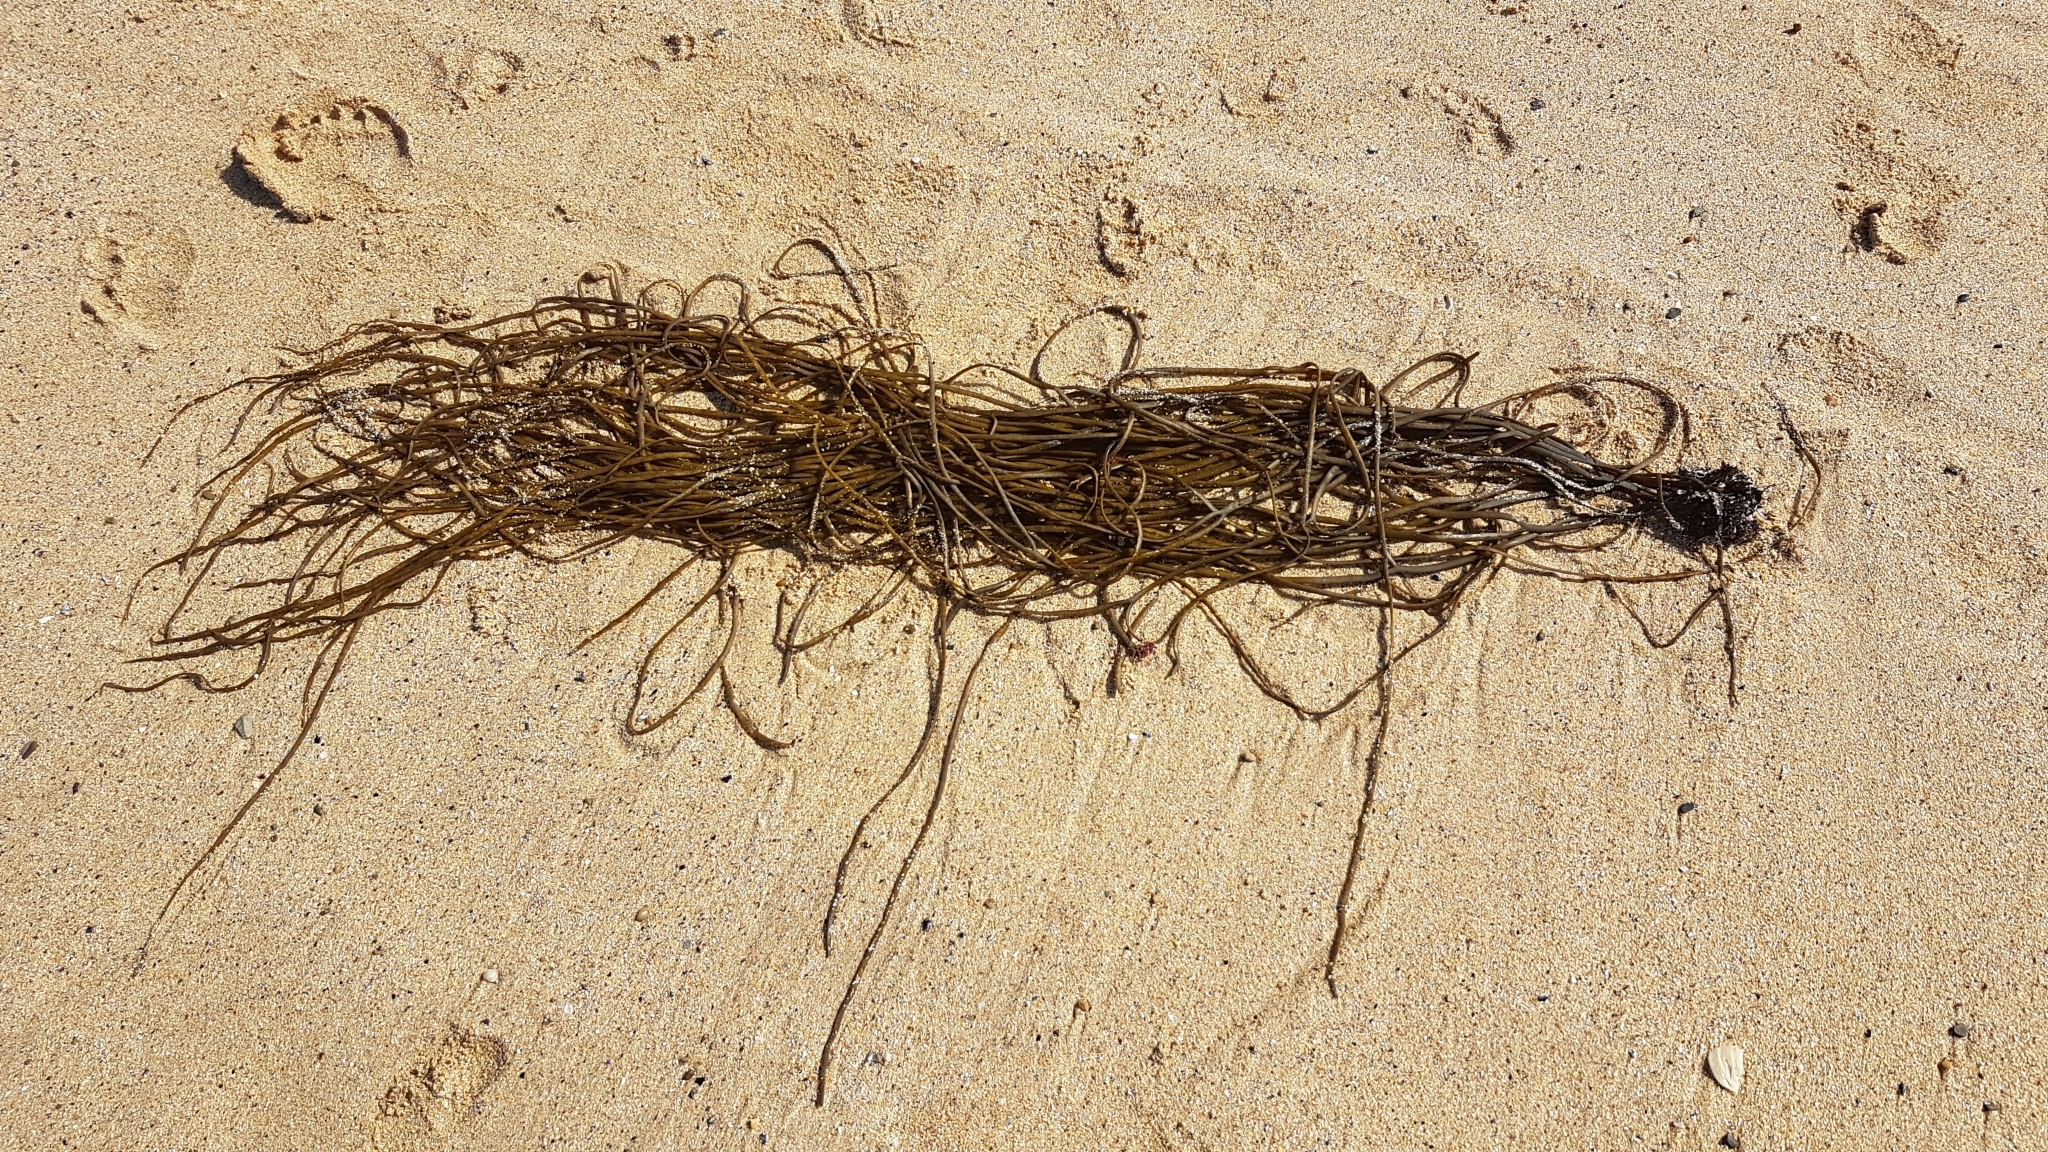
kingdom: Chromista
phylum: Ochrophyta
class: Phaeophyceae
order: Fucales
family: Himanthaliaceae
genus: Himanthalia
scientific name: Himanthalia elongata
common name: Sea-thong
